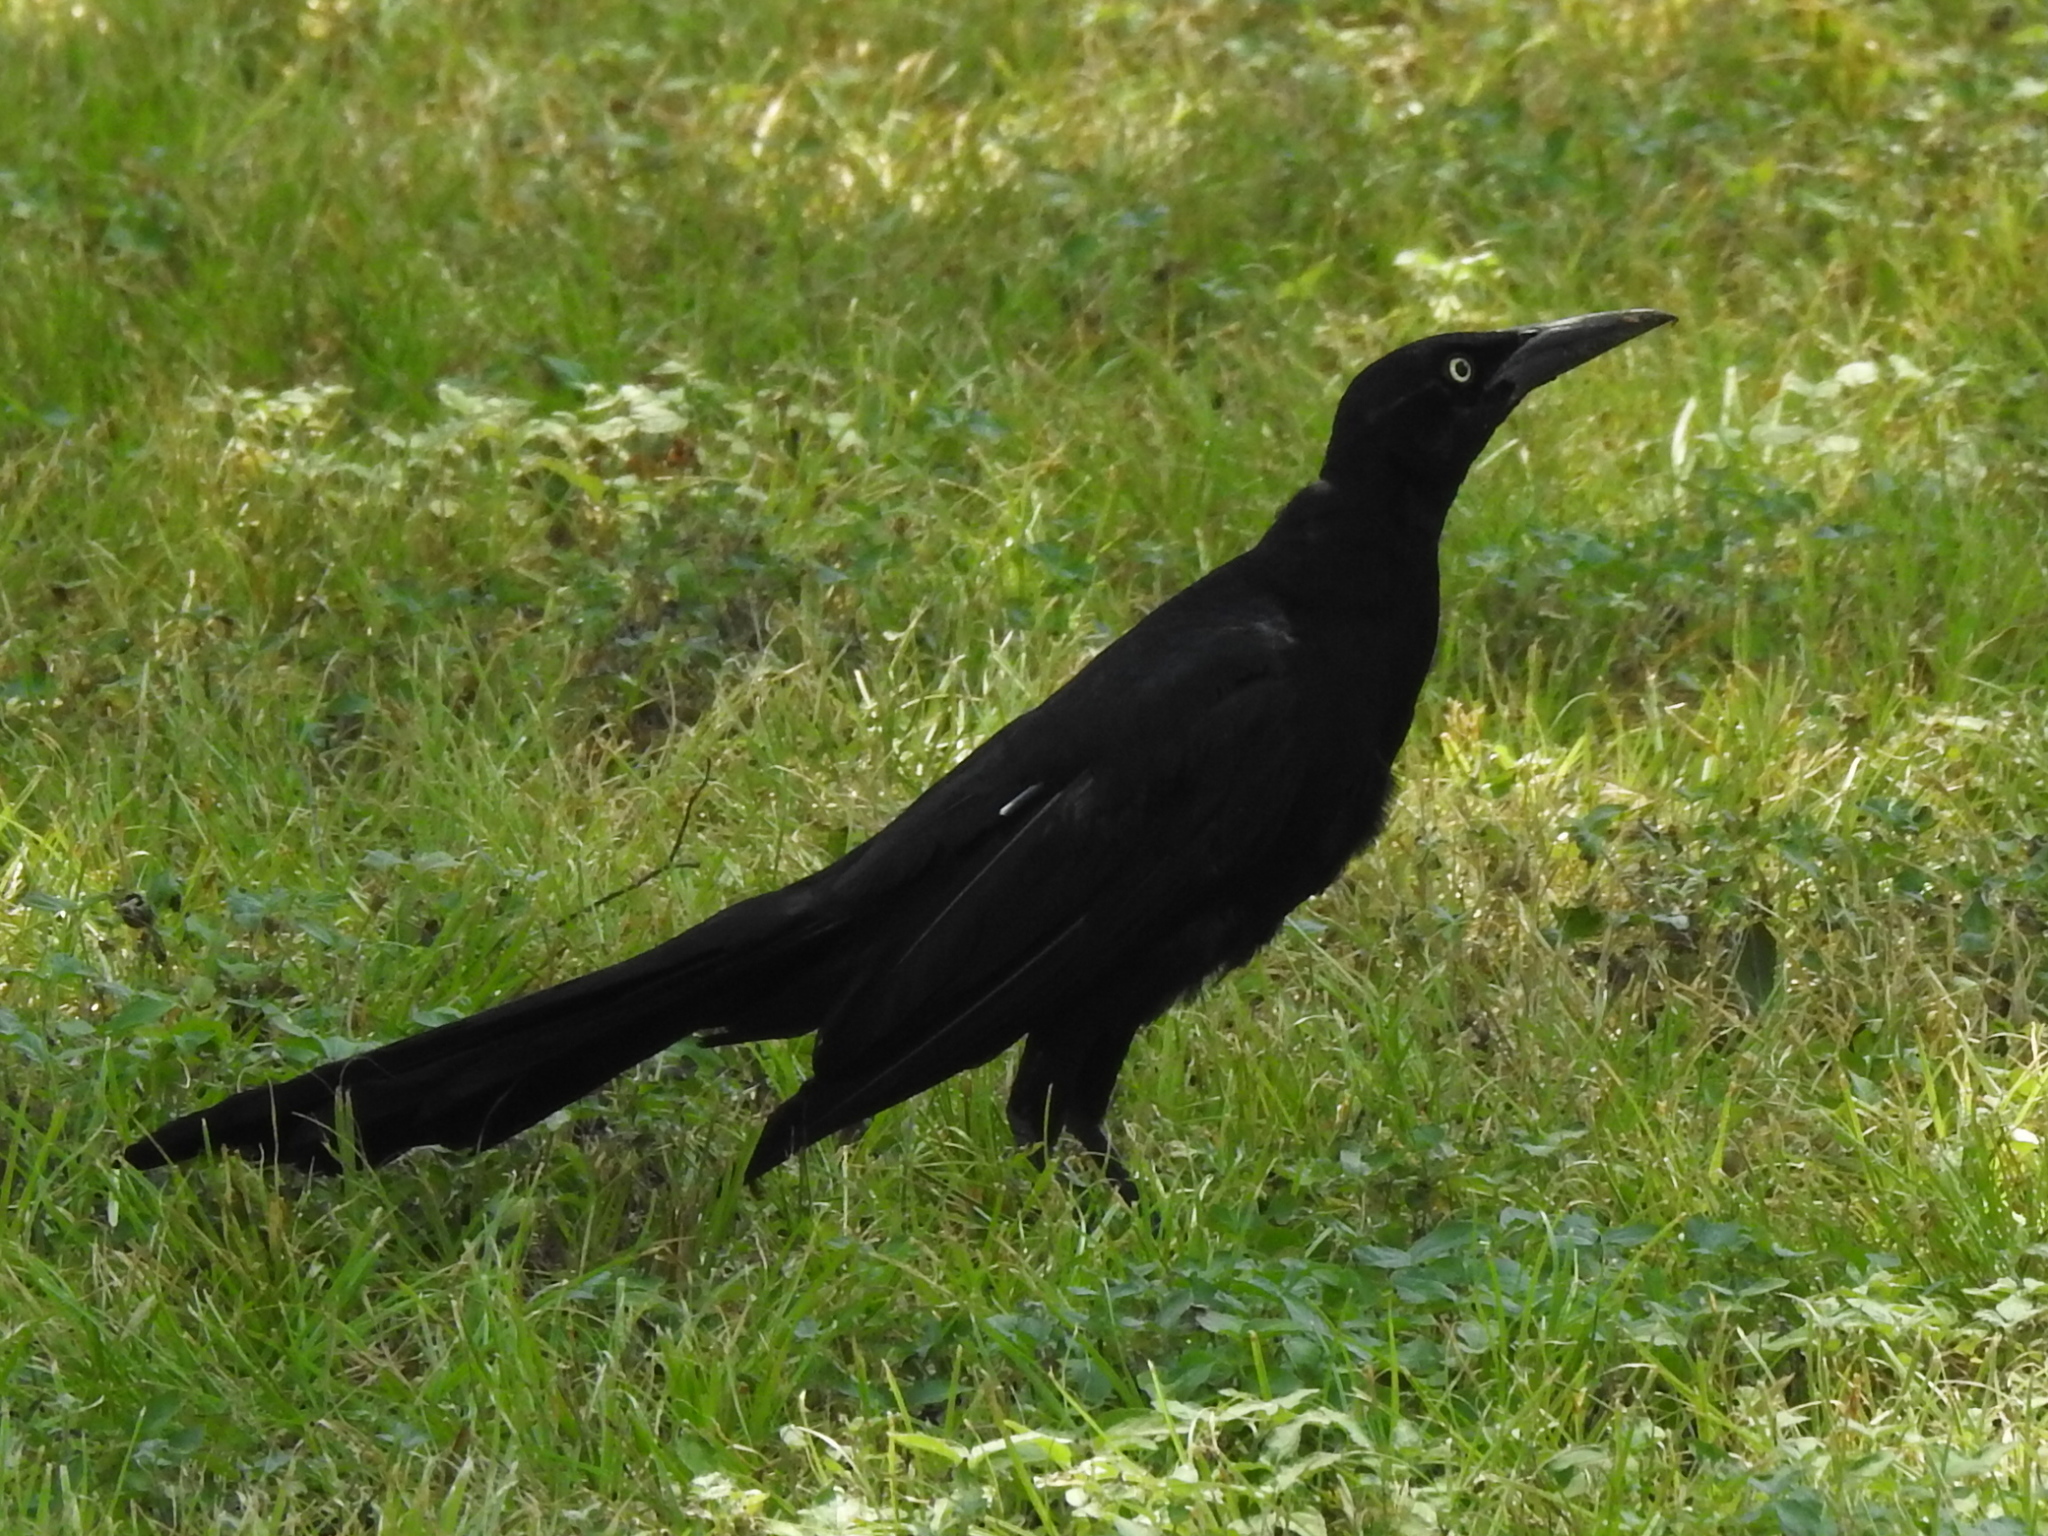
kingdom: Animalia
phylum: Chordata
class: Aves
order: Passeriformes
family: Icteridae
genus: Quiscalus
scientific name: Quiscalus mexicanus
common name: Great-tailed grackle
